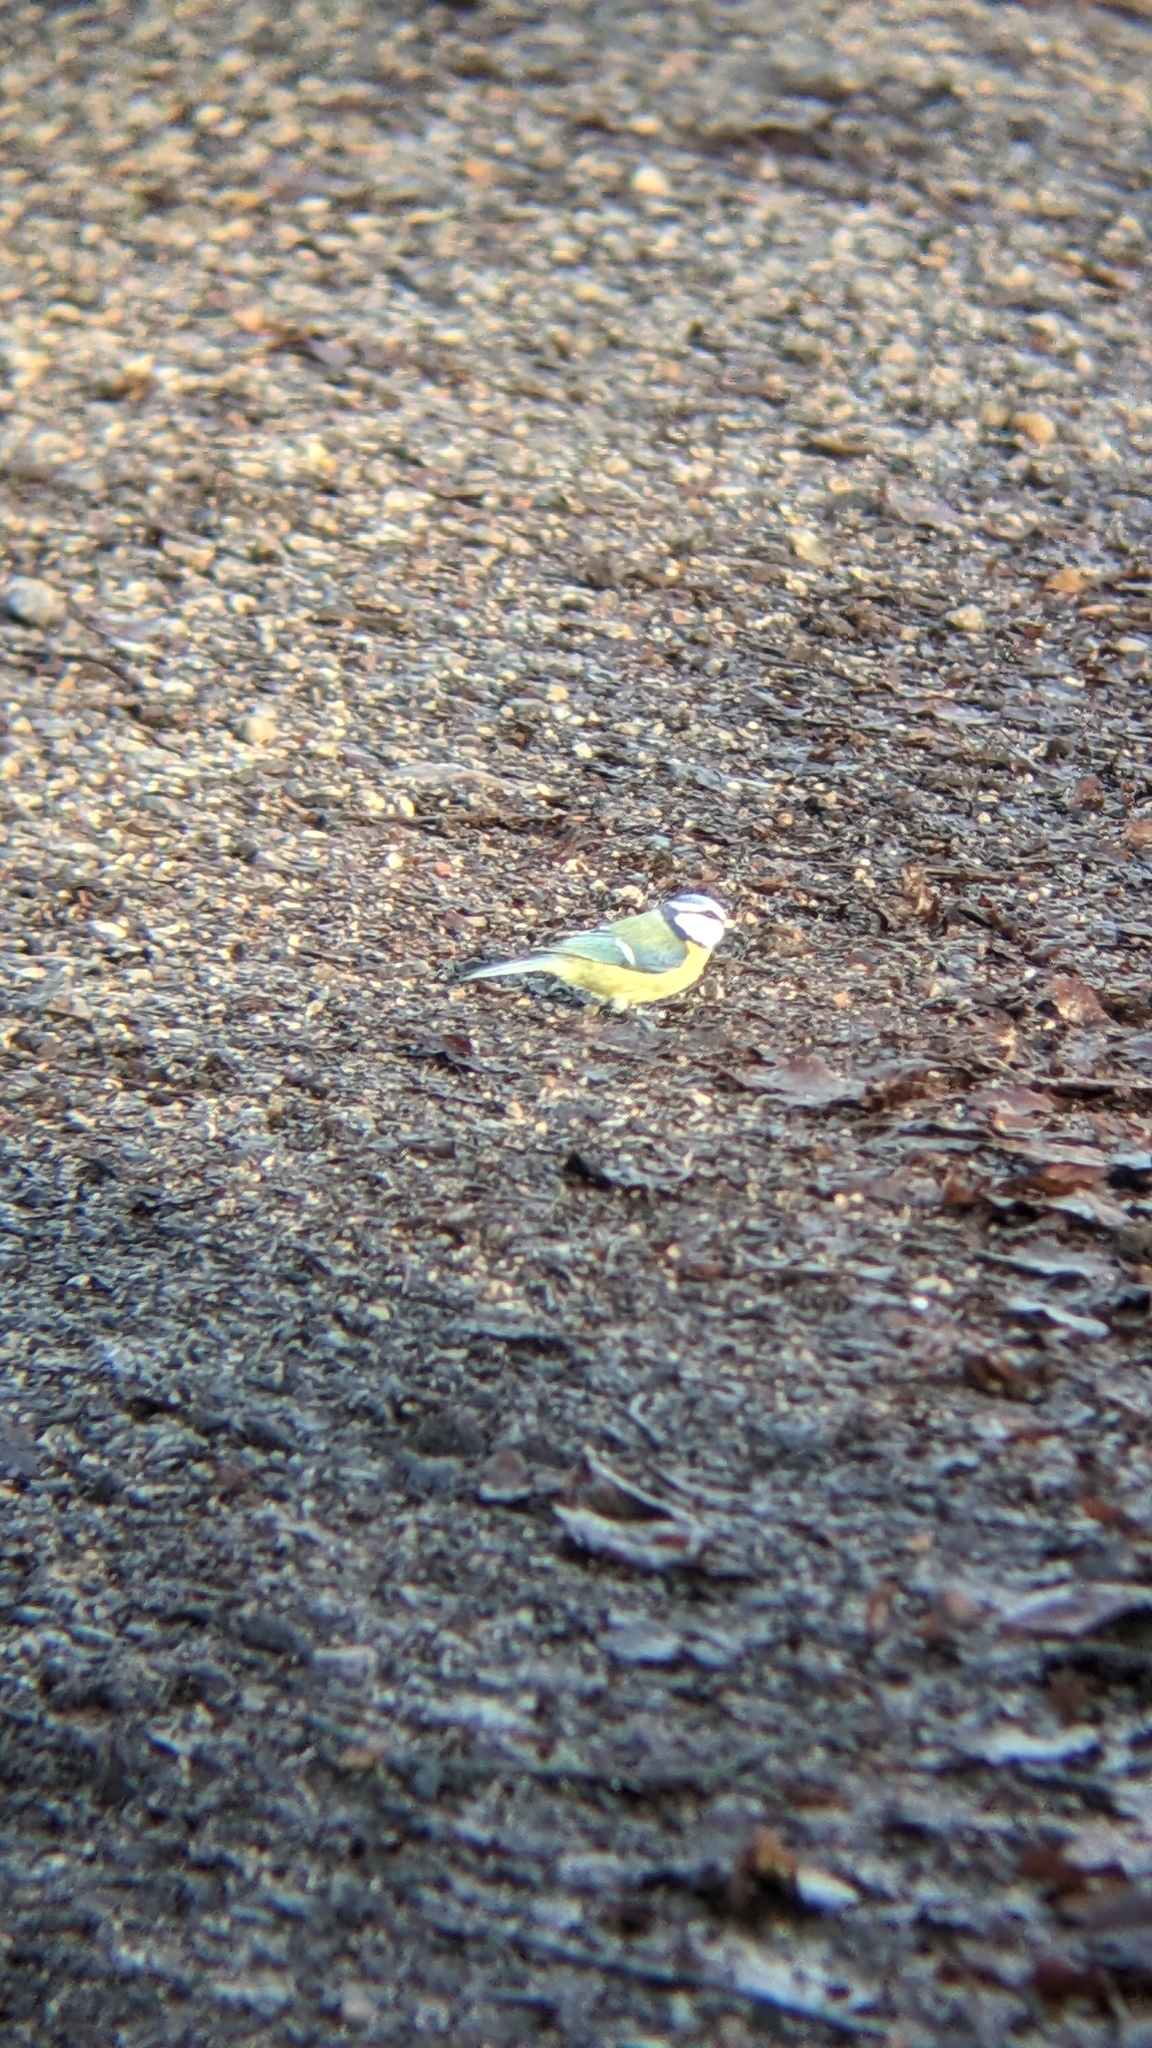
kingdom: Animalia
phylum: Chordata
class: Aves
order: Passeriformes
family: Paridae
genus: Cyanistes
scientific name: Cyanistes caeruleus
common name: Eurasian blue tit
